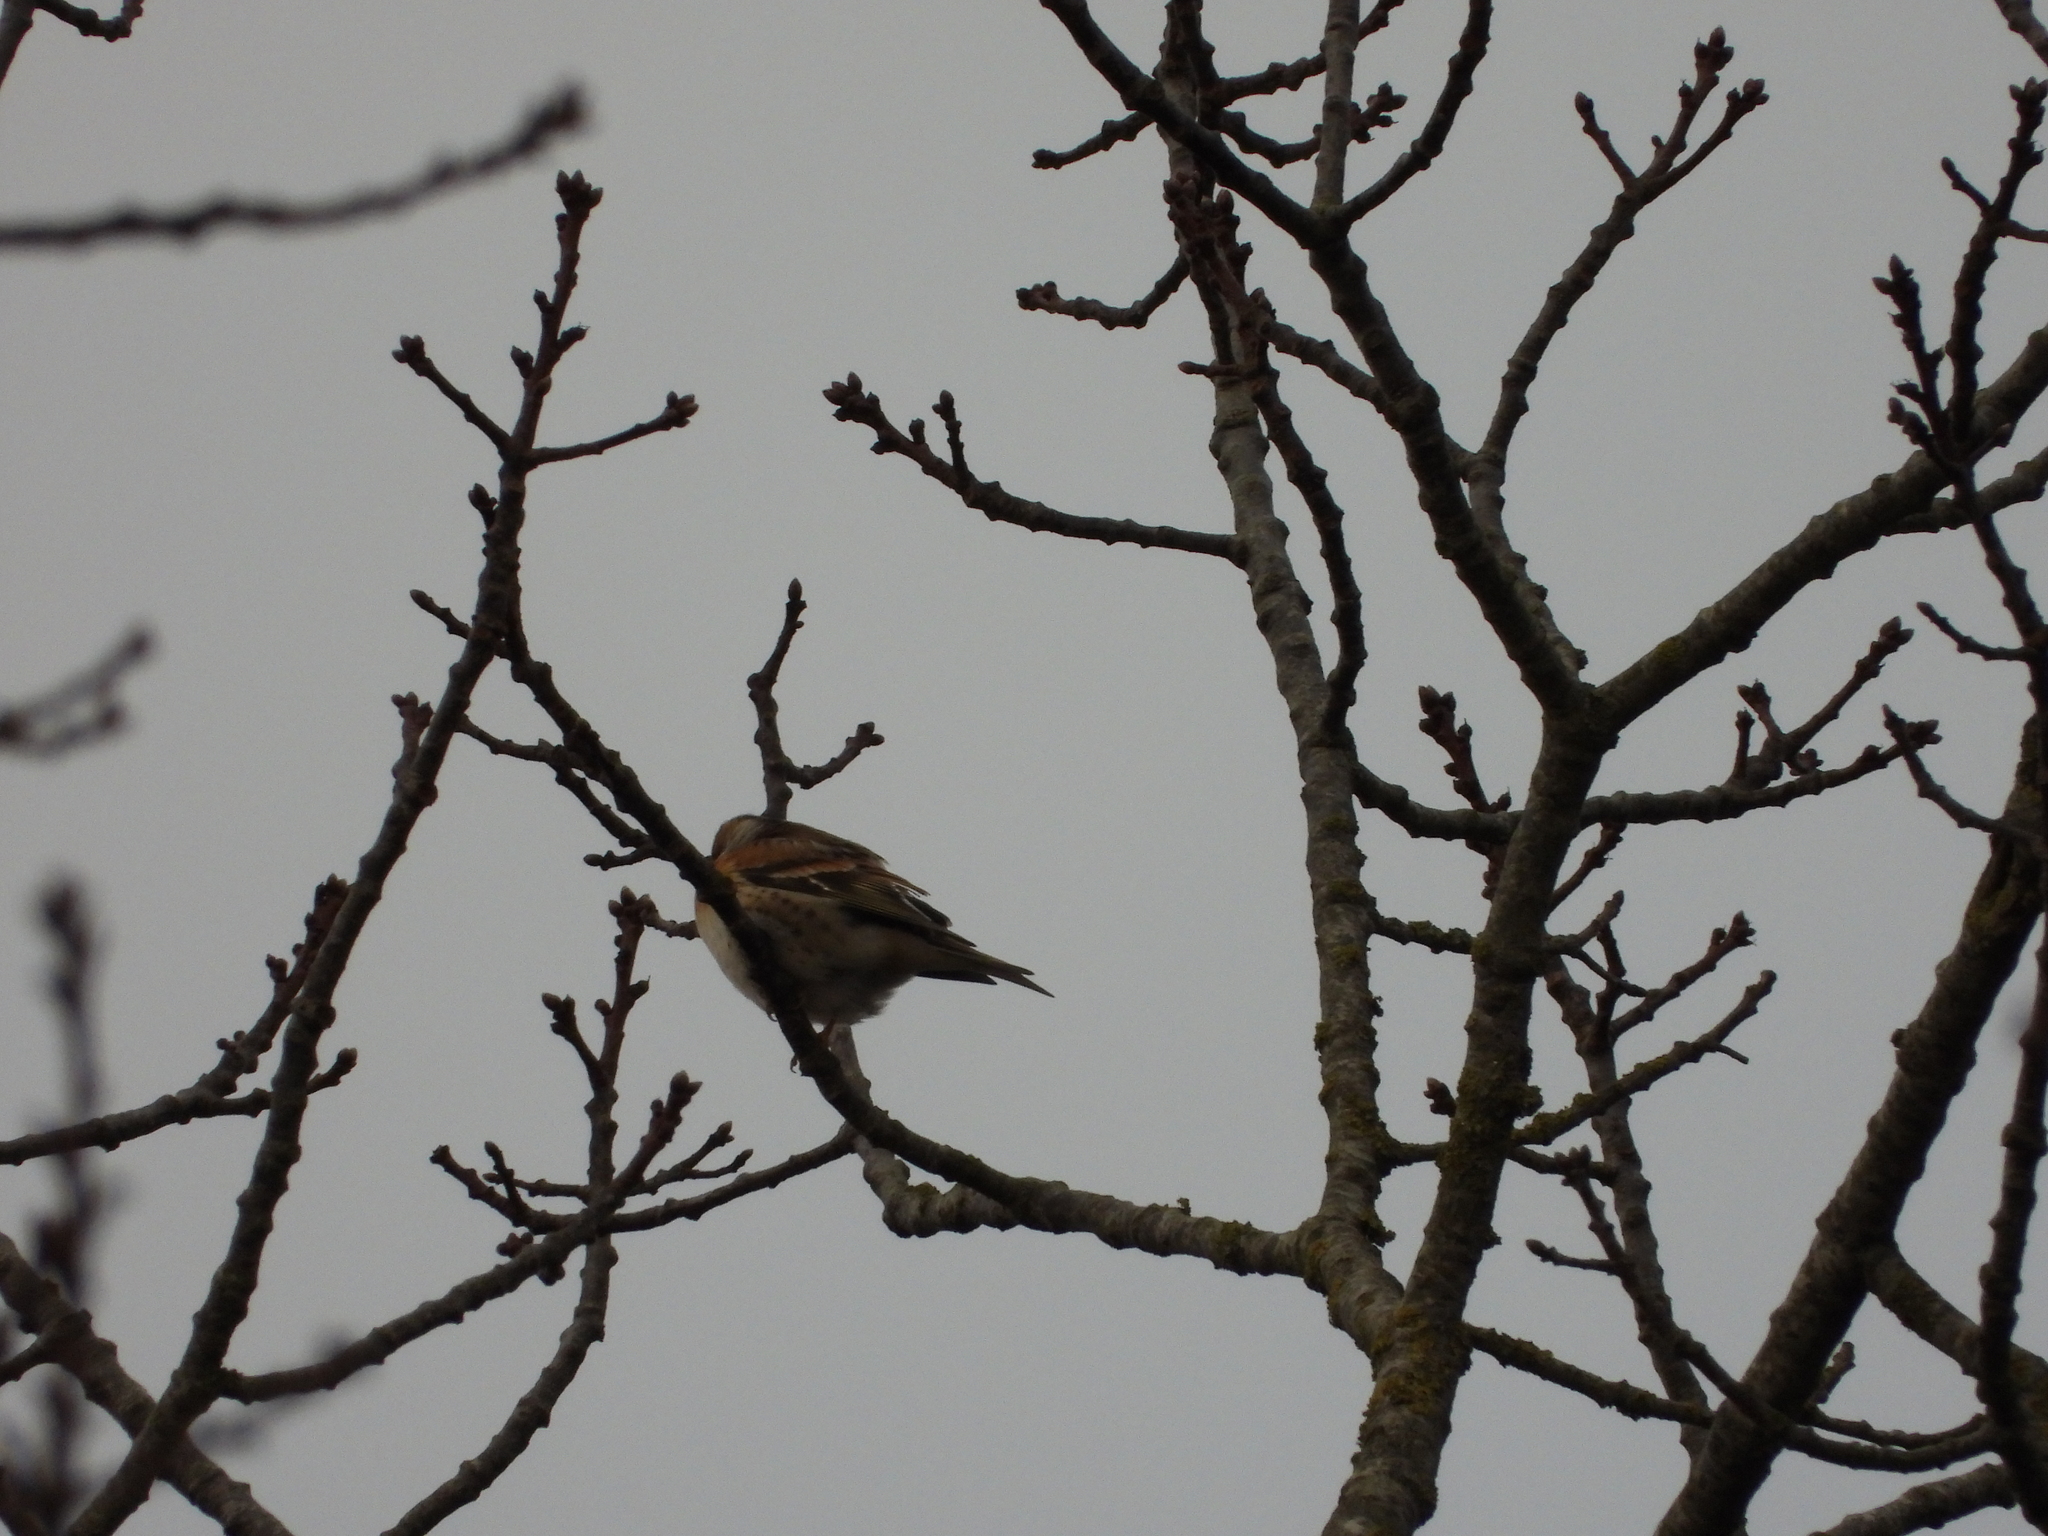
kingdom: Animalia
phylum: Chordata
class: Aves
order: Passeriformes
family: Fringillidae
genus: Fringilla
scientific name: Fringilla montifringilla
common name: Brambling
